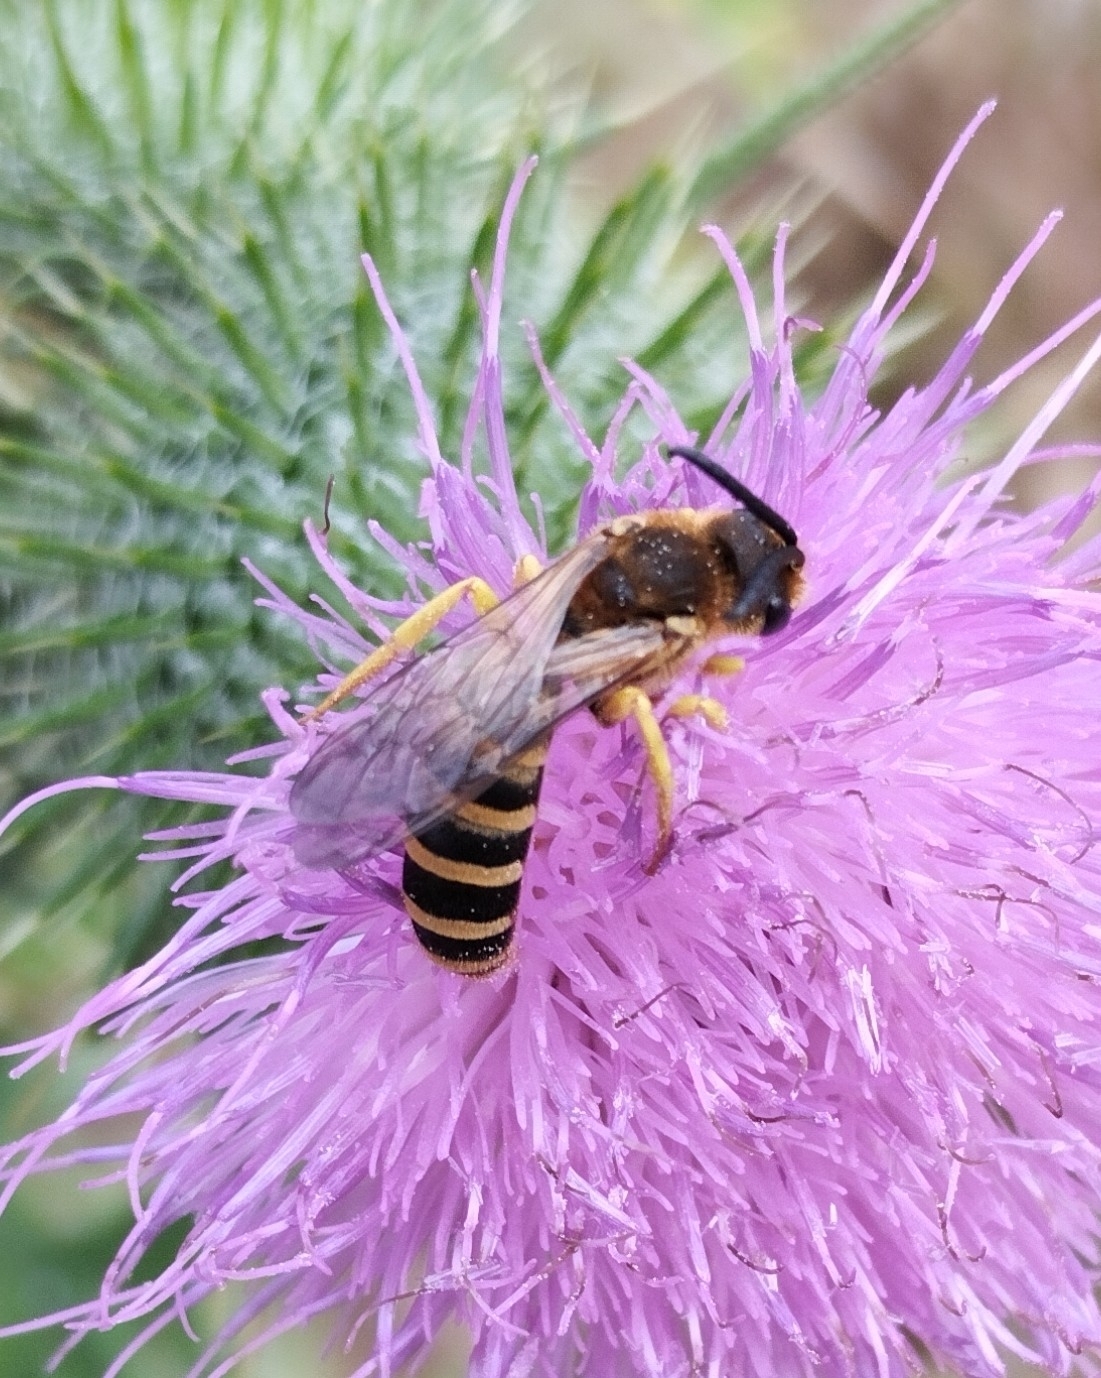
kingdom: Animalia
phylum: Arthropoda
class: Insecta
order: Hymenoptera
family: Halictidae
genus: Halictus
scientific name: Halictus scabiosae
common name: Great banded furrow bee
